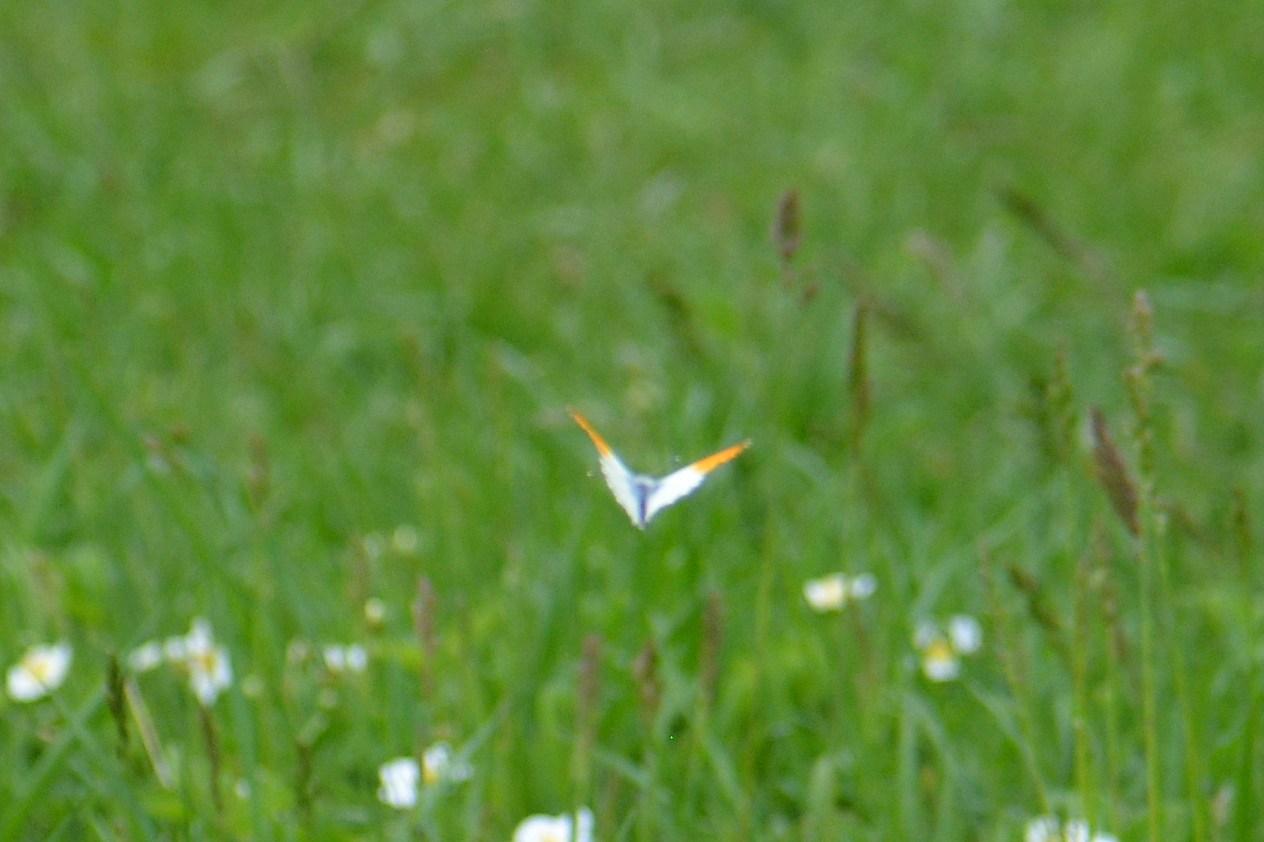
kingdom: Animalia
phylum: Arthropoda
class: Insecta
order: Lepidoptera
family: Pieridae
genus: Anthocharis
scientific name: Anthocharis cardamines
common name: Orange-tip
